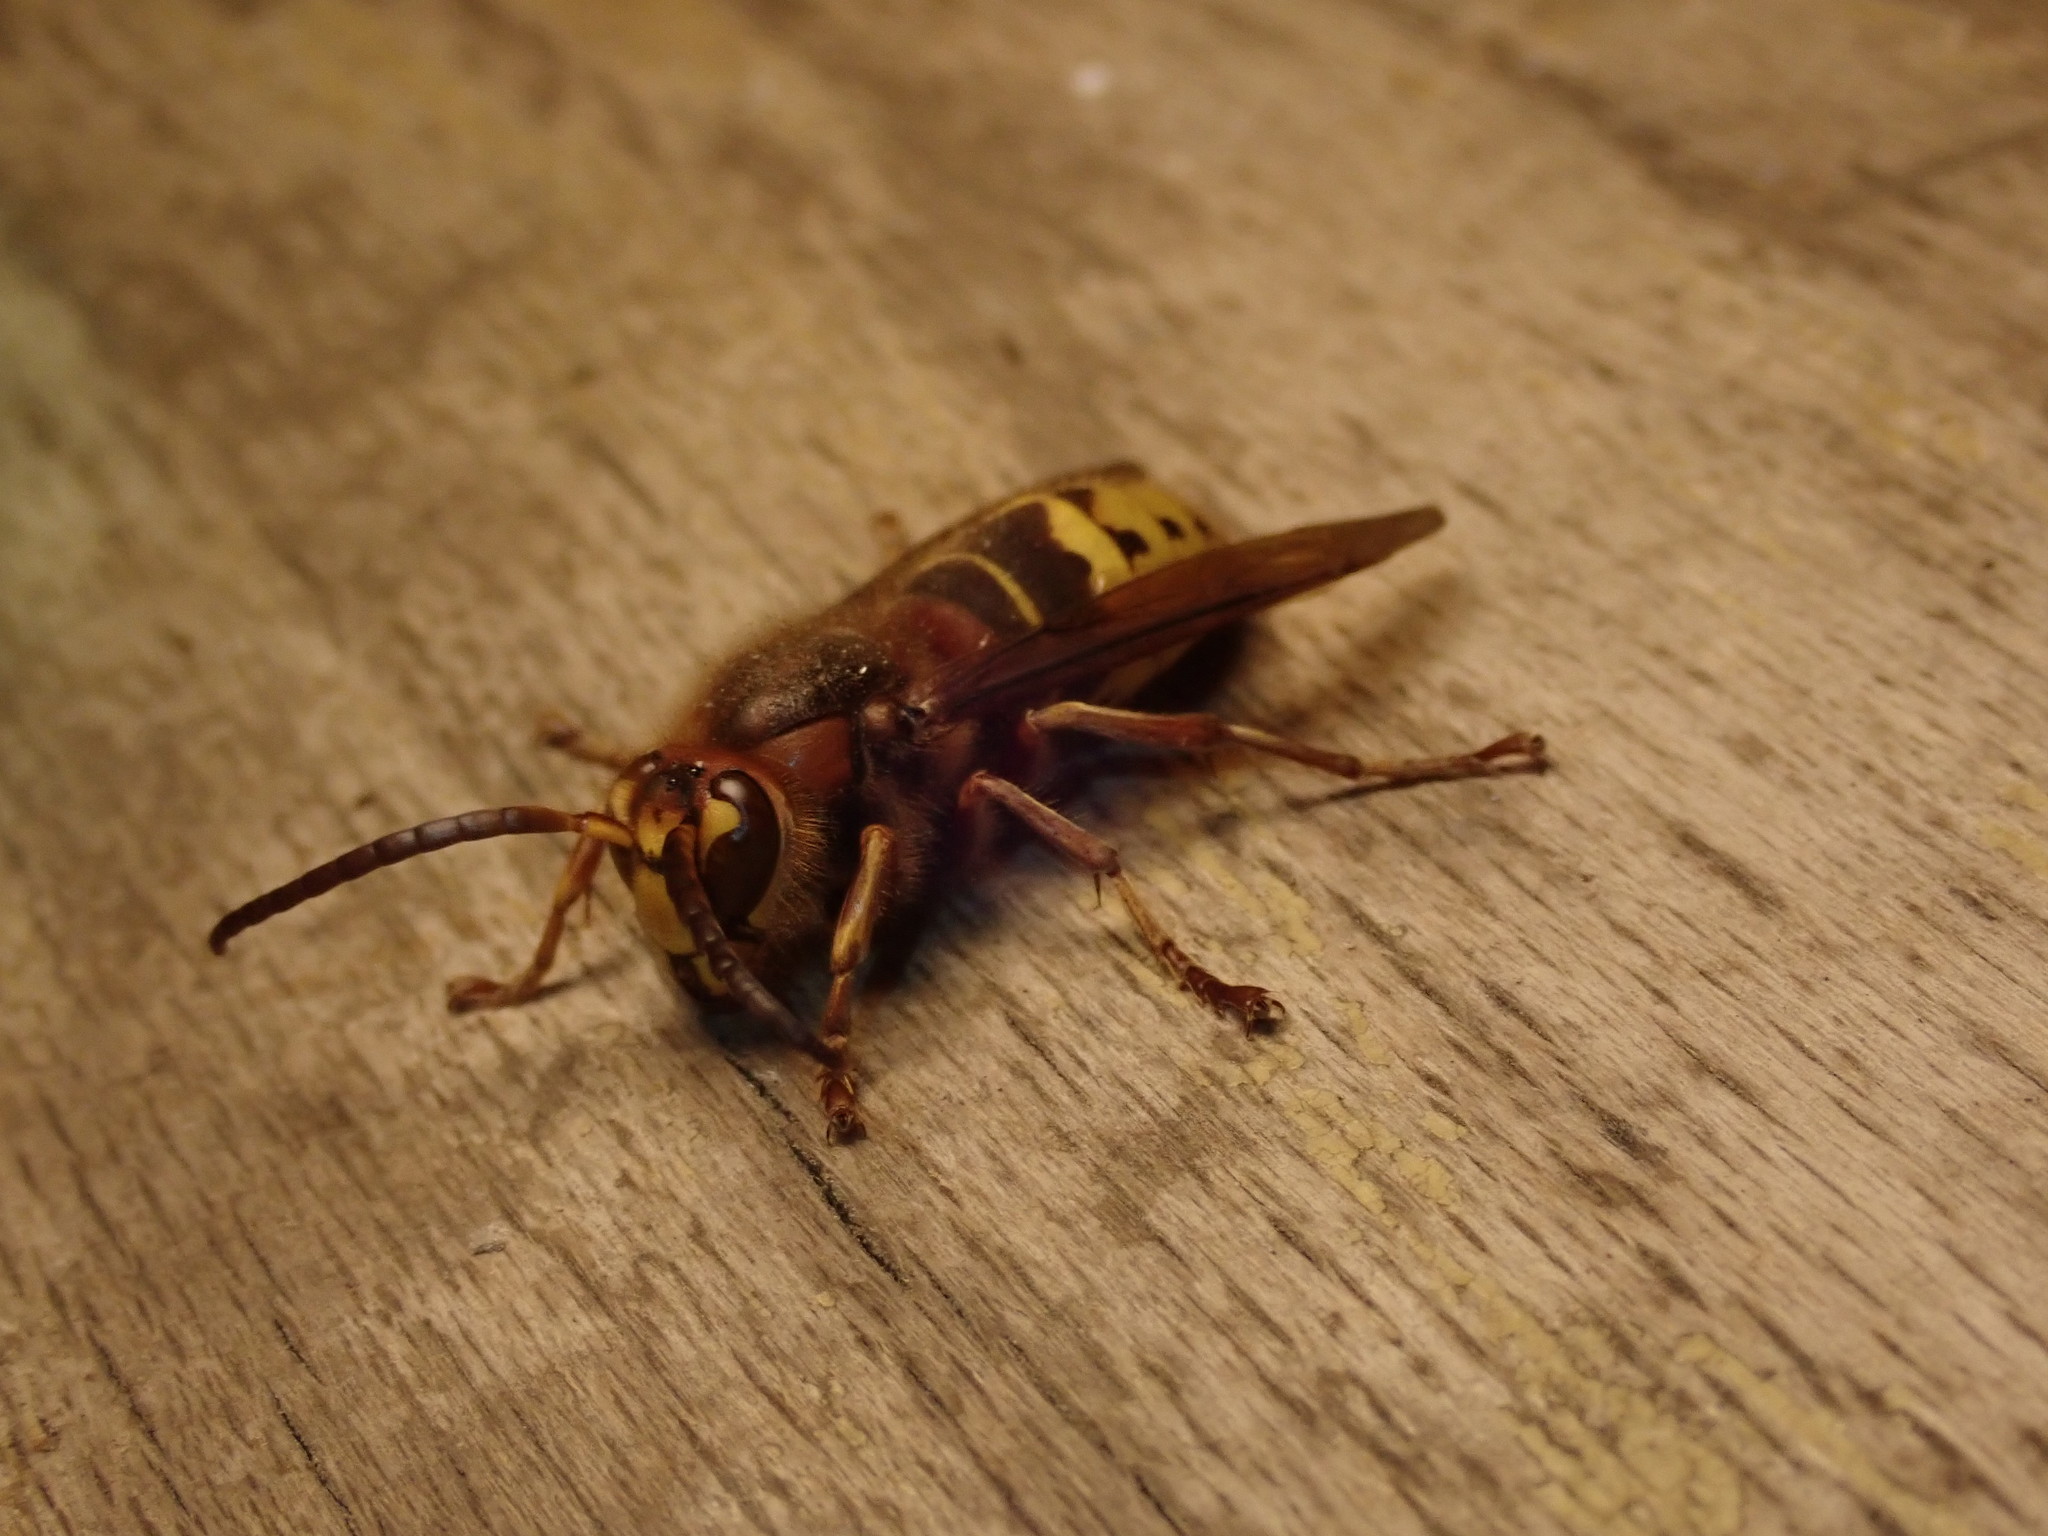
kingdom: Animalia
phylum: Arthropoda
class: Insecta
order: Hymenoptera
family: Vespidae
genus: Vespa
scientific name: Vespa crabro
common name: Hornet
